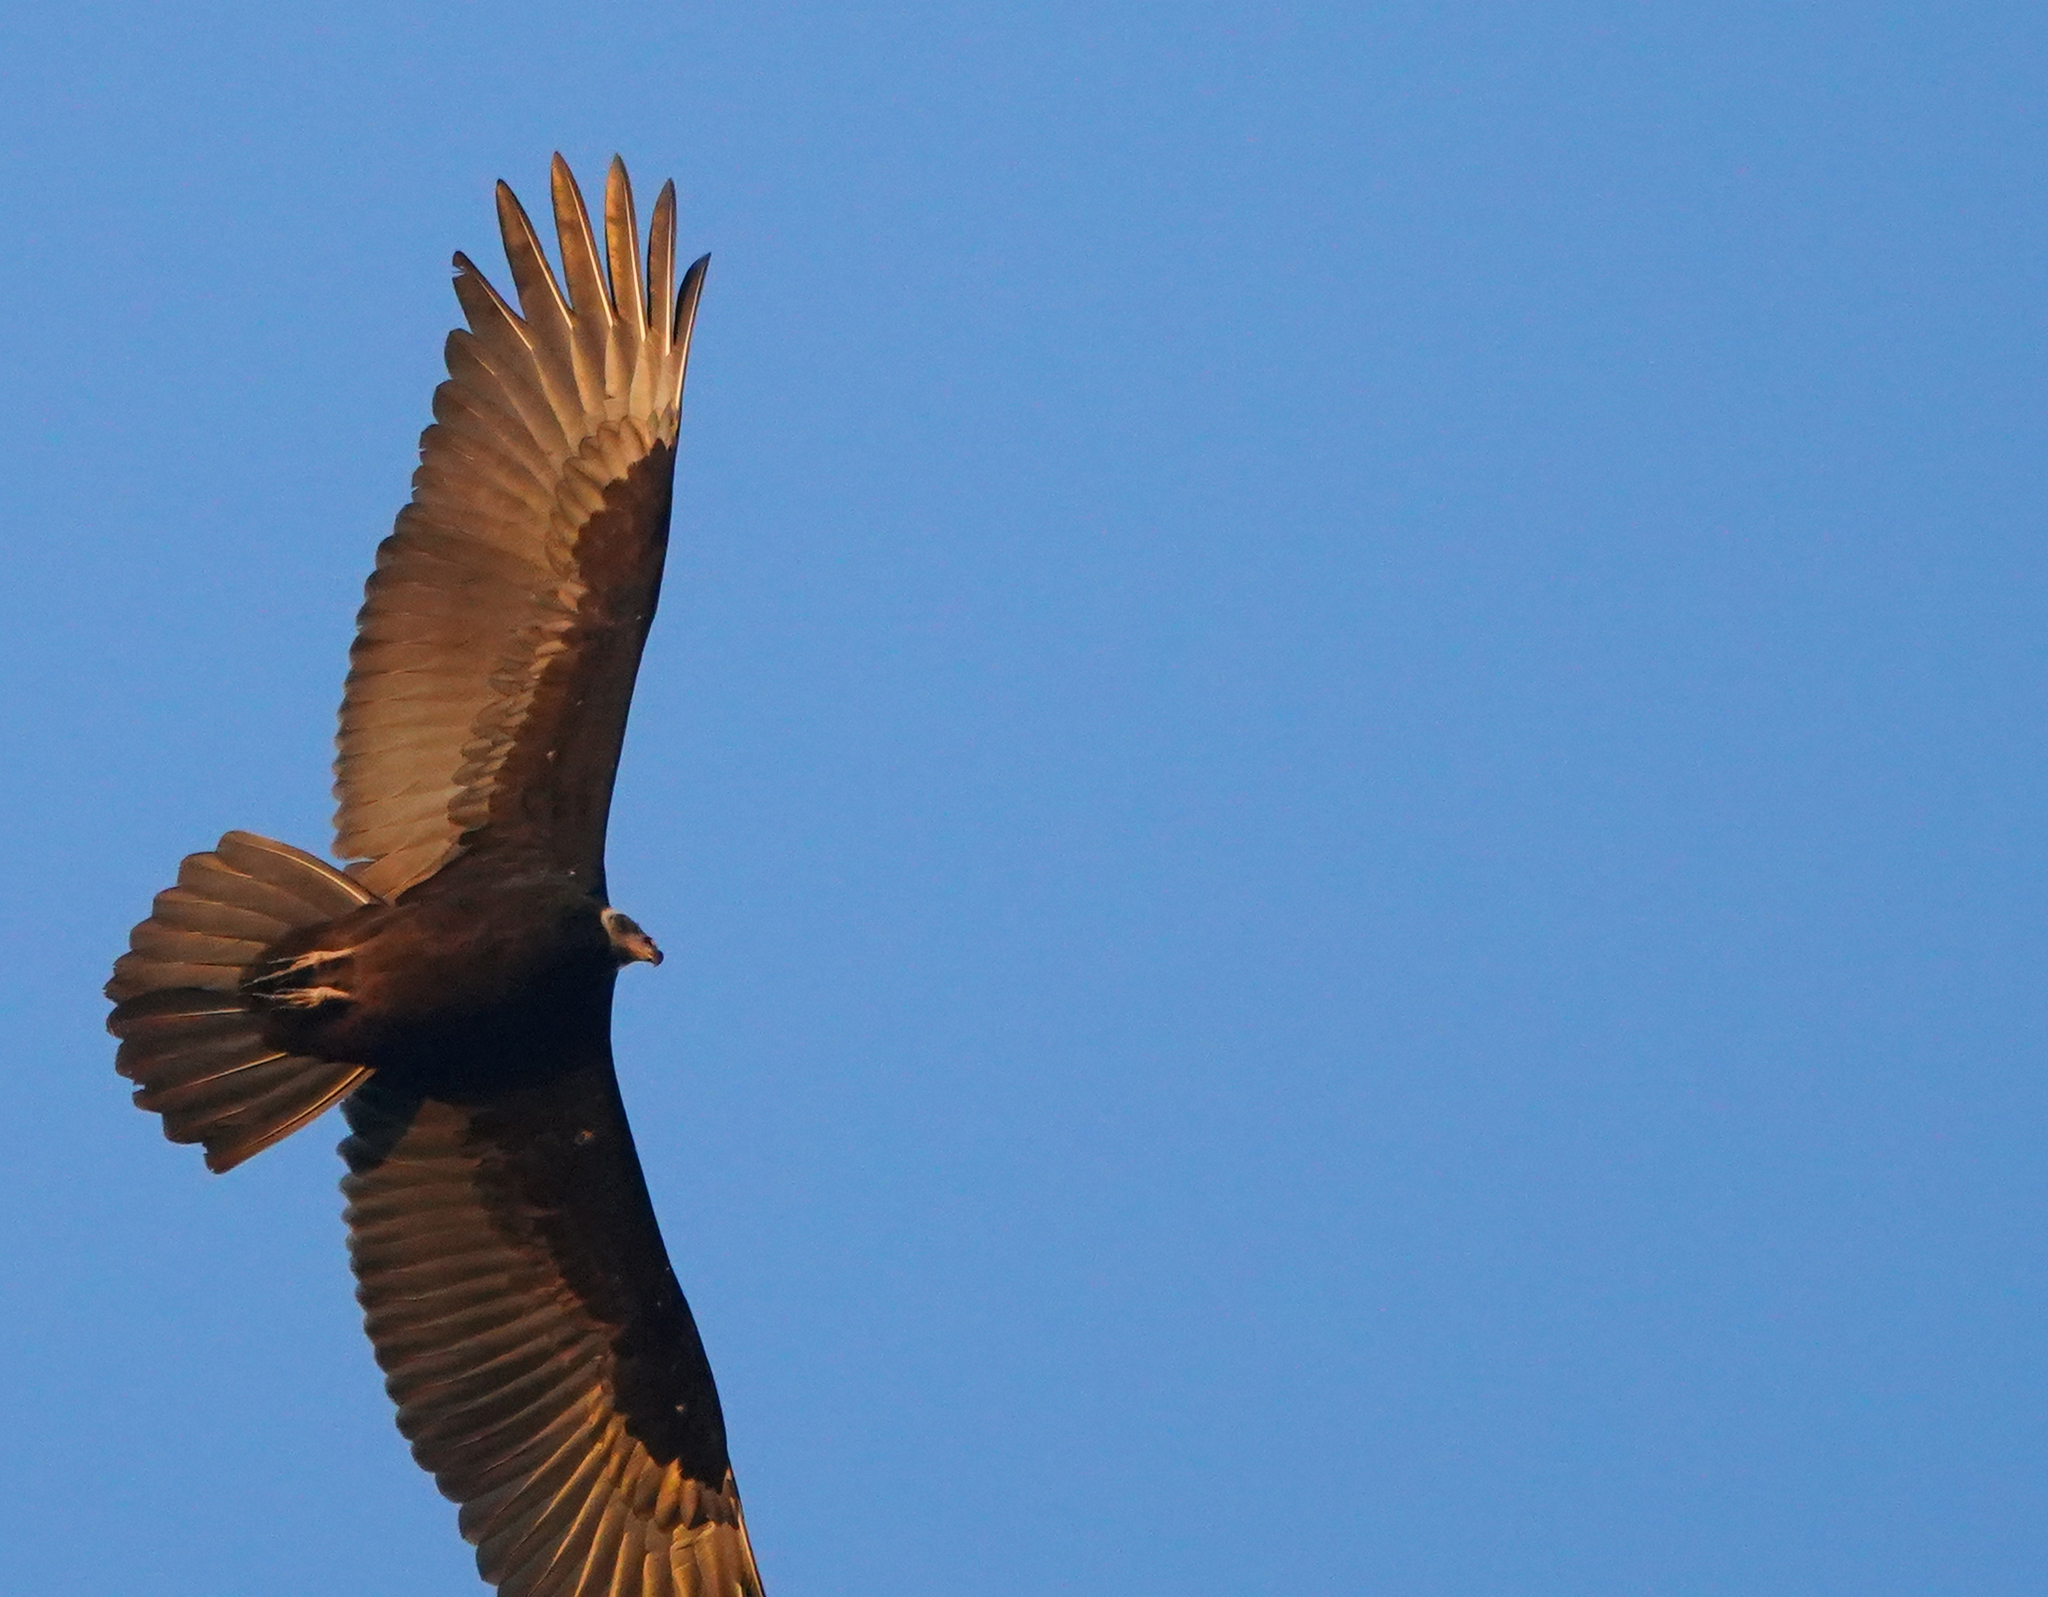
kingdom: Animalia
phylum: Chordata
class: Aves
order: Accipitriformes
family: Cathartidae
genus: Cathartes
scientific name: Cathartes aura
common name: Turkey vulture
